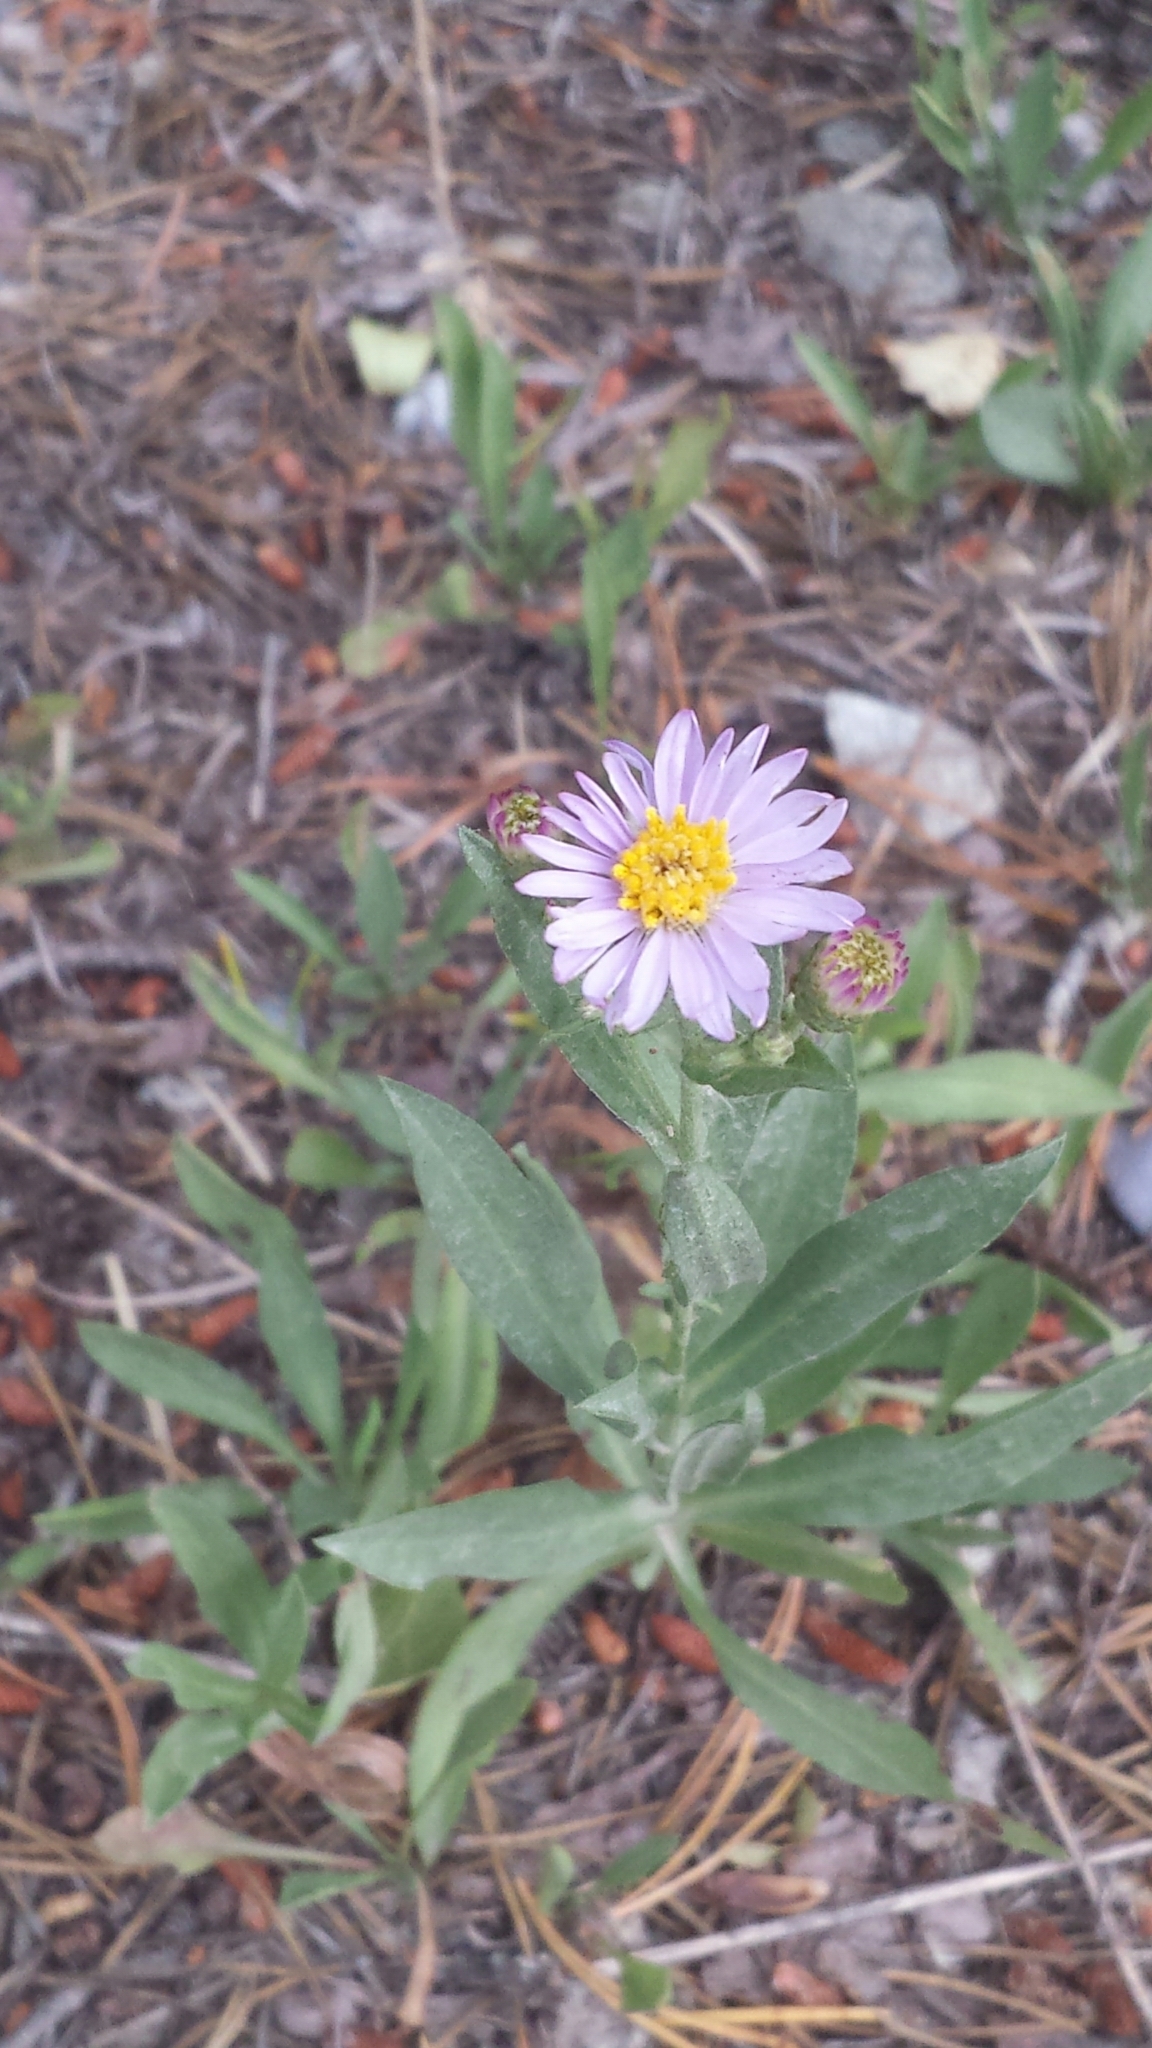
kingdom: Plantae
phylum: Tracheophyta
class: Magnoliopsida
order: Asterales
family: Asteraceae
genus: Erigeron
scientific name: Erigeron speciosus
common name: Aspen fleabane
